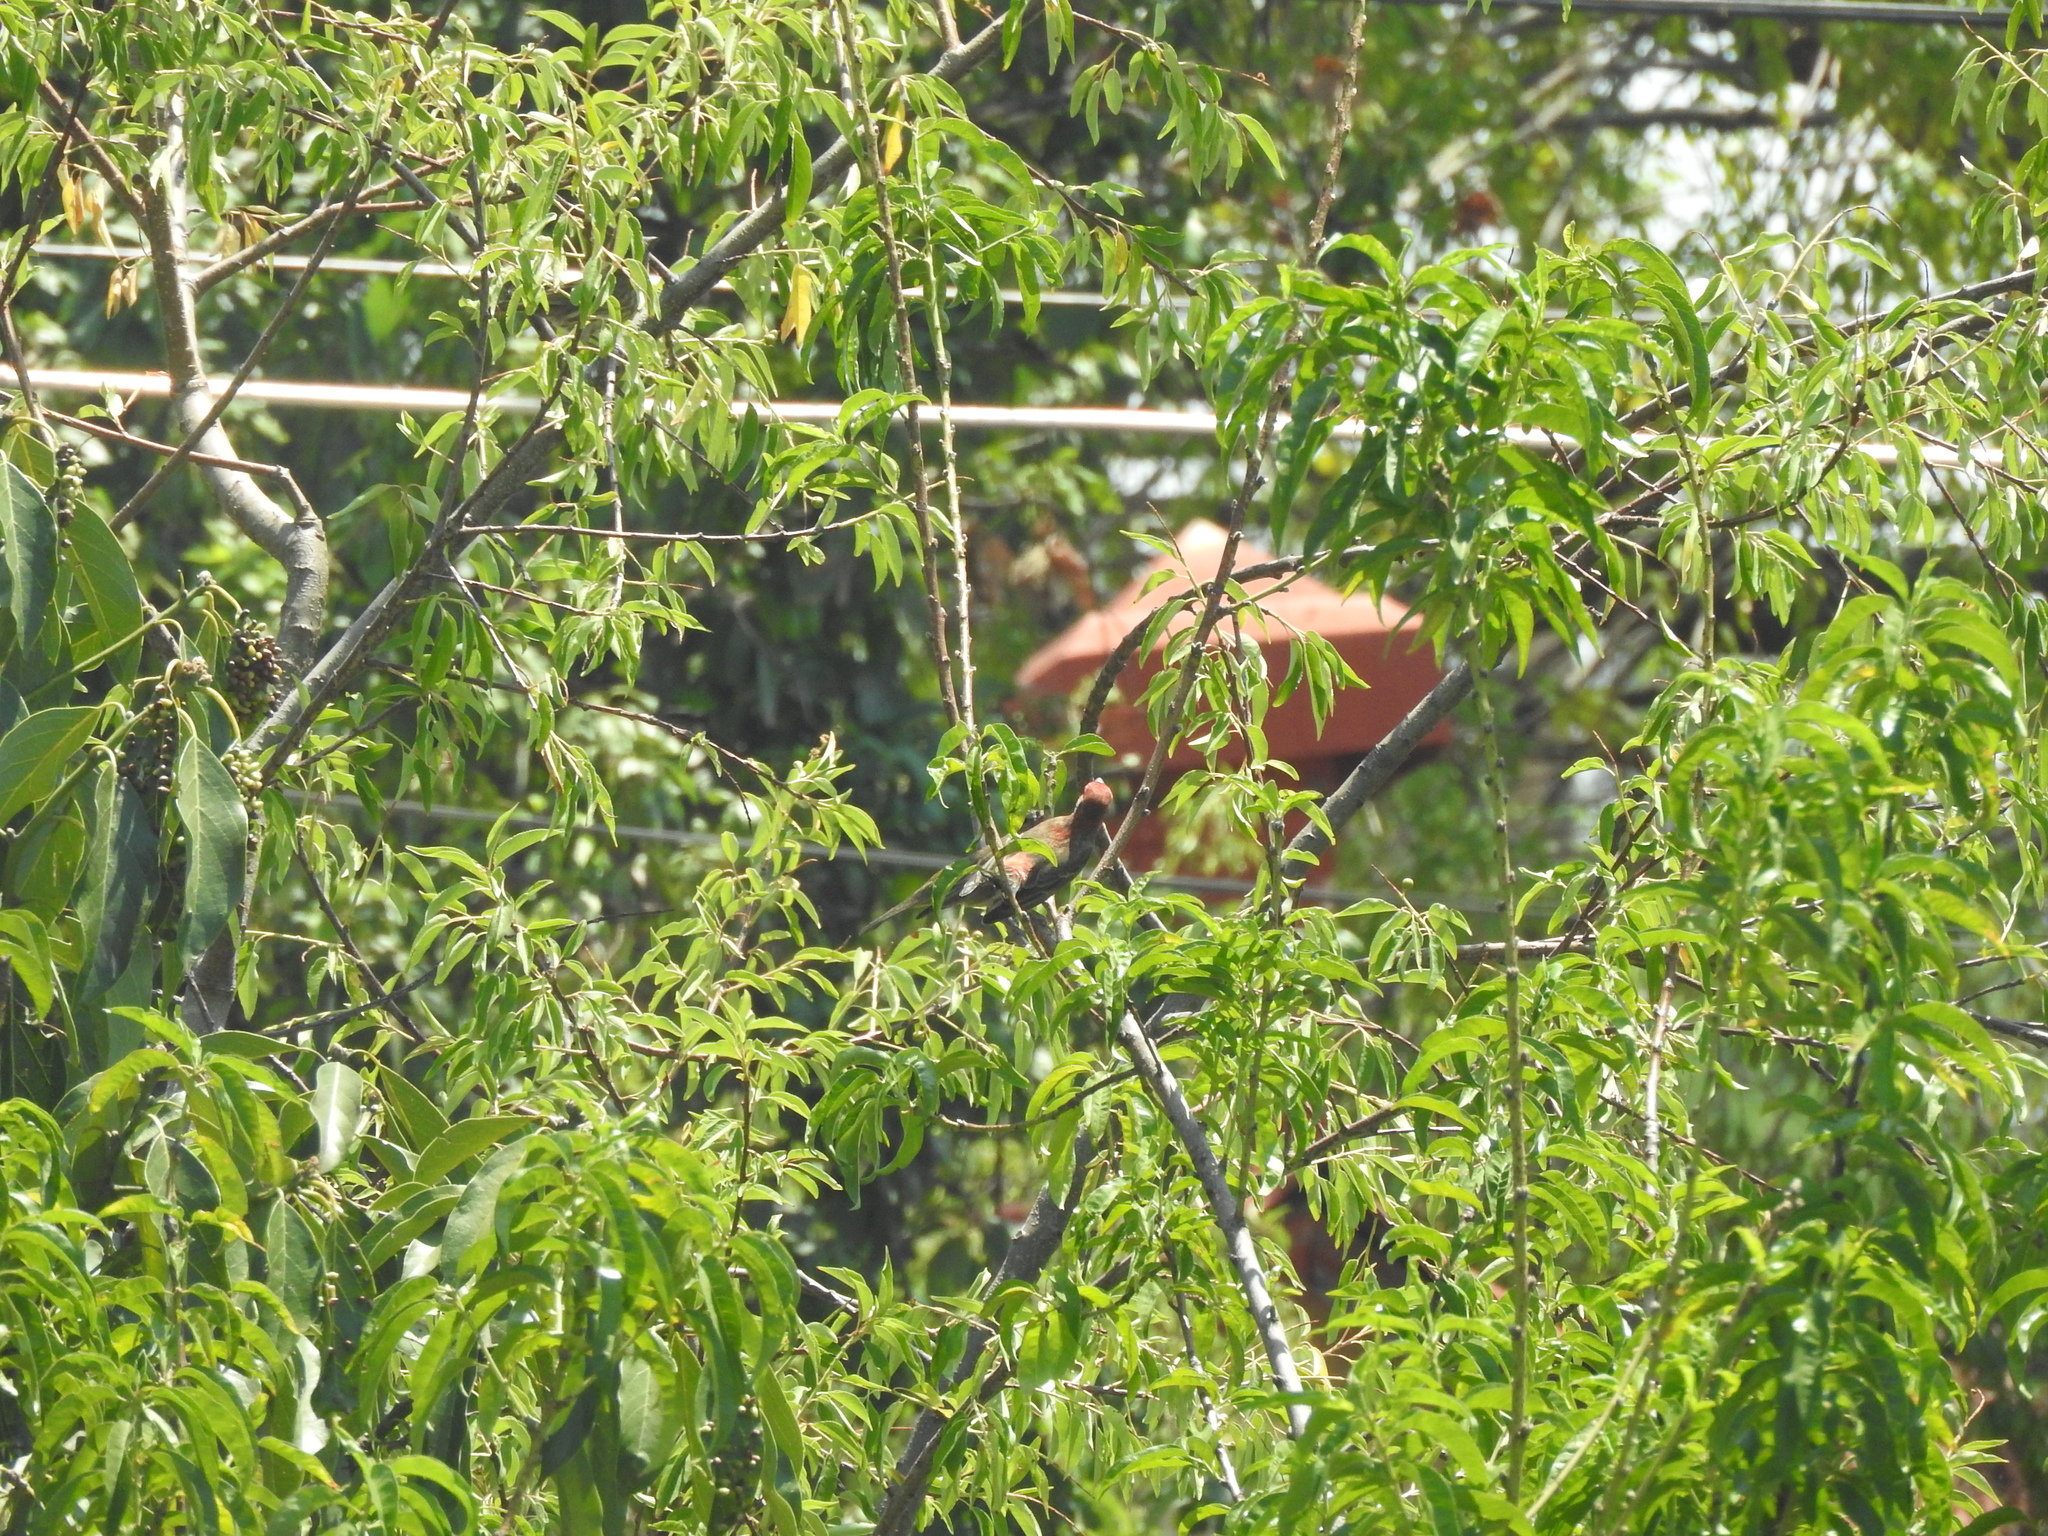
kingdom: Animalia
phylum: Chordata
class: Aves
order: Passeriformes
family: Fringillidae
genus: Haemorhous
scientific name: Haemorhous mexicanus
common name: House finch
